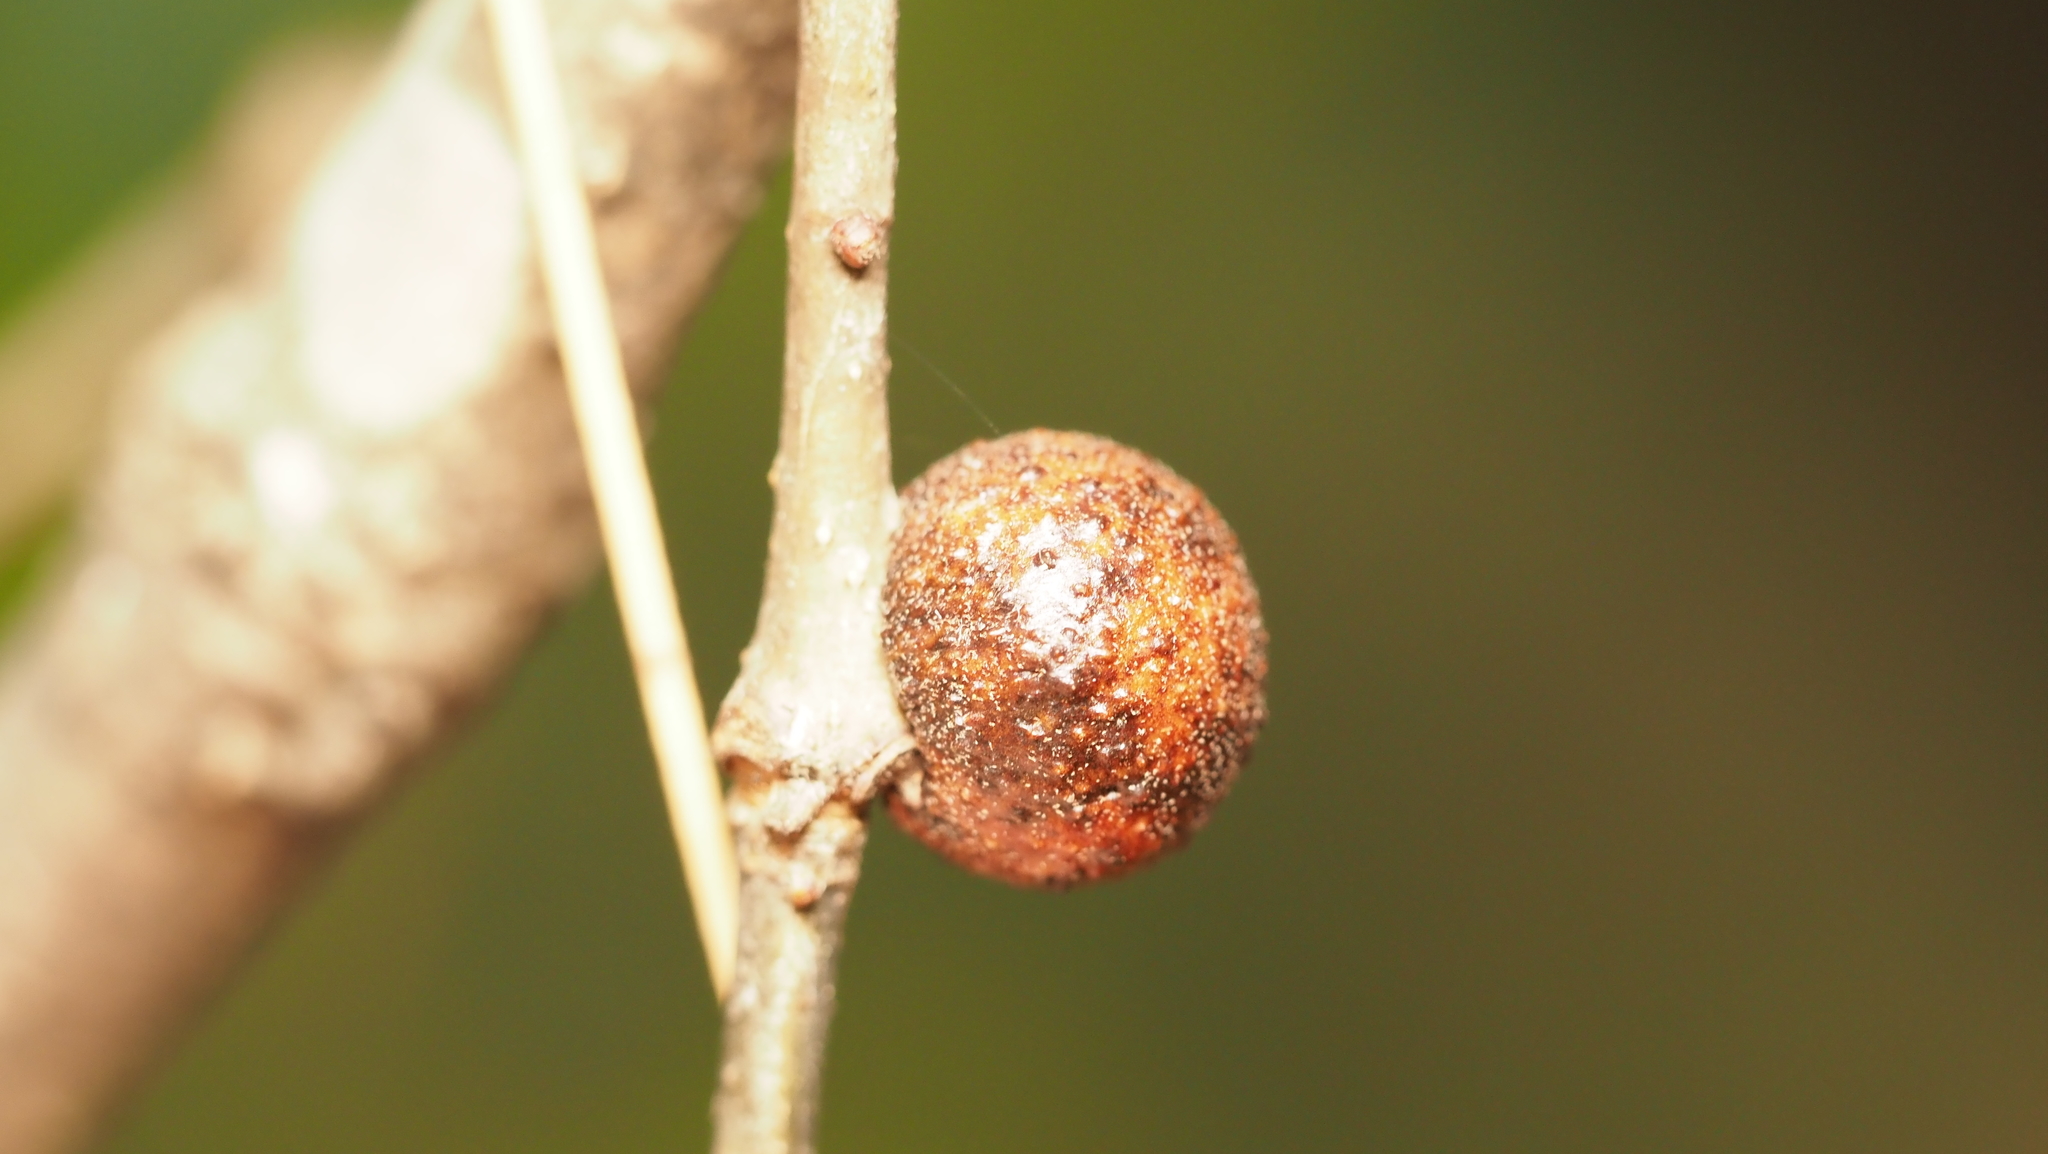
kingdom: Animalia
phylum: Arthropoda
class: Insecta
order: Hymenoptera
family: Cynipidae
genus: Disholcaspis
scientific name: Disholcaspis quercusglobulus
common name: Round bullet gall wasp
